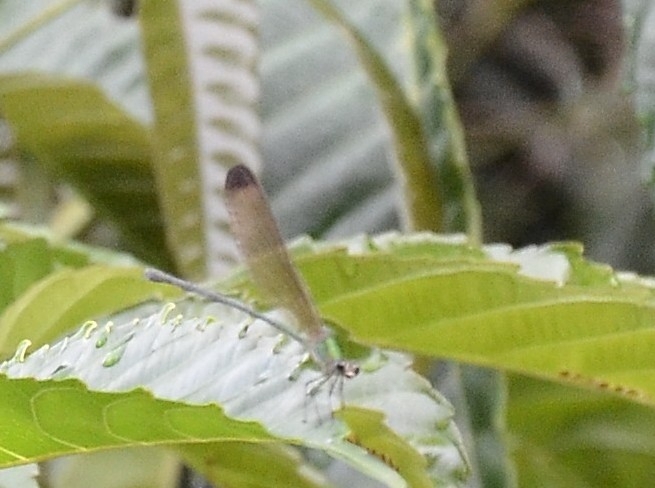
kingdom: Animalia
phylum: Arthropoda
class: Insecta
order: Odonata
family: Calopterygidae
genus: Vestalis
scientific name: Vestalis apicalis
